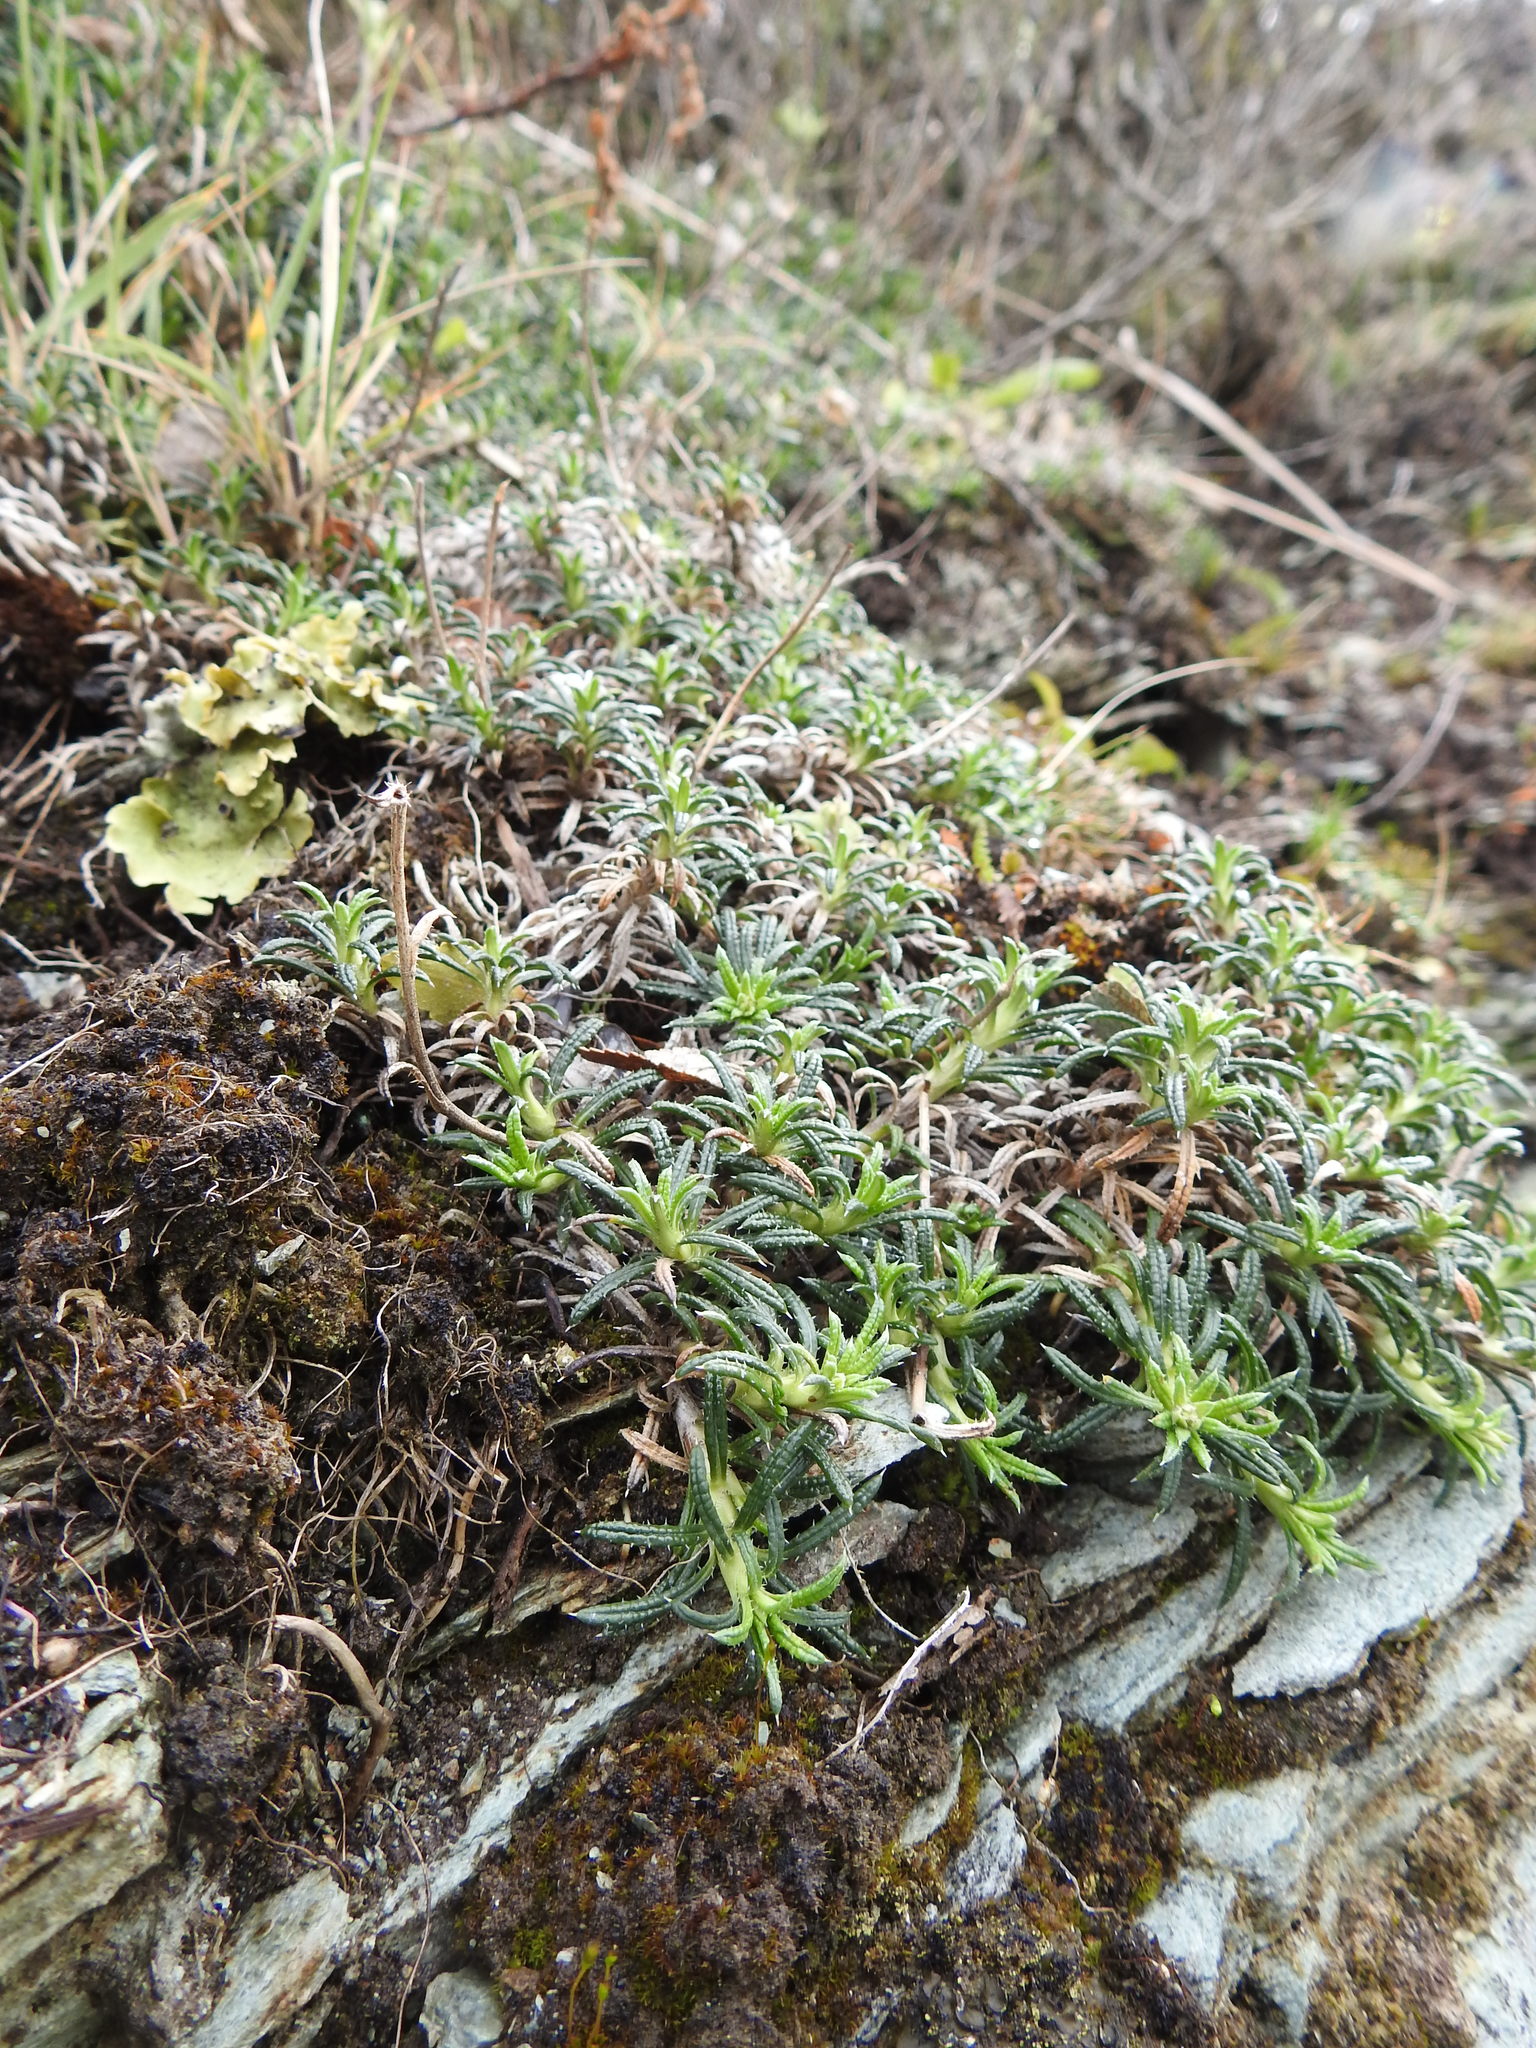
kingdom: Plantae
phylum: Tracheophyta
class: Magnoliopsida
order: Asterales
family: Asteraceae
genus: Perezia
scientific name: Perezia recurvata
